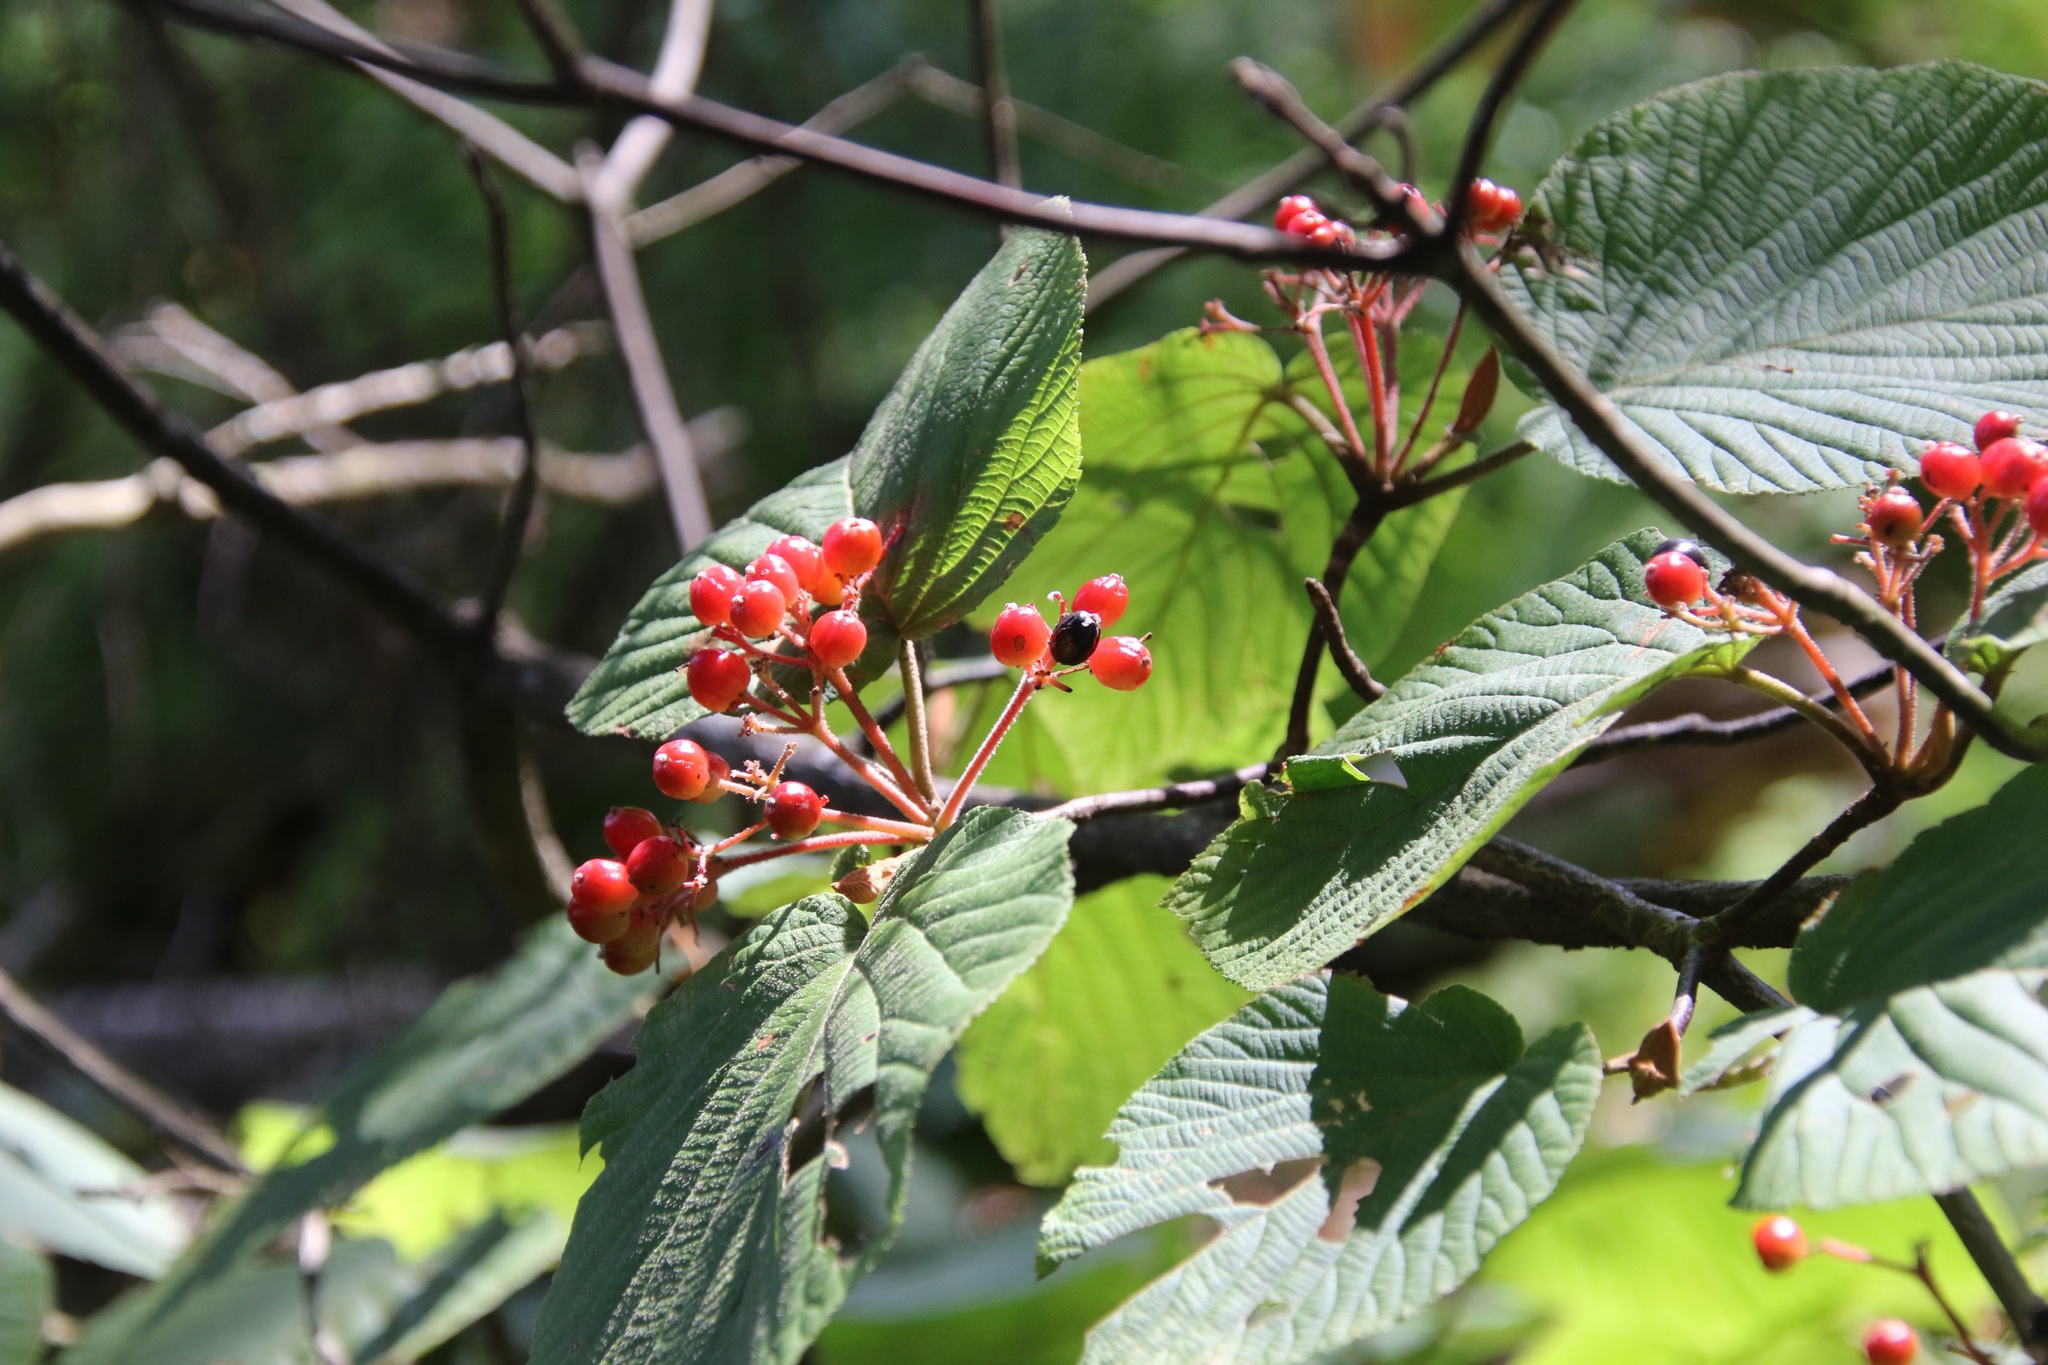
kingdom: Plantae
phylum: Tracheophyta
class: Magnoliopsida
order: Dipsacales
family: Viburnaceae
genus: Viburnum
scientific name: Viburnum lantanoides
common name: Hobblebush
